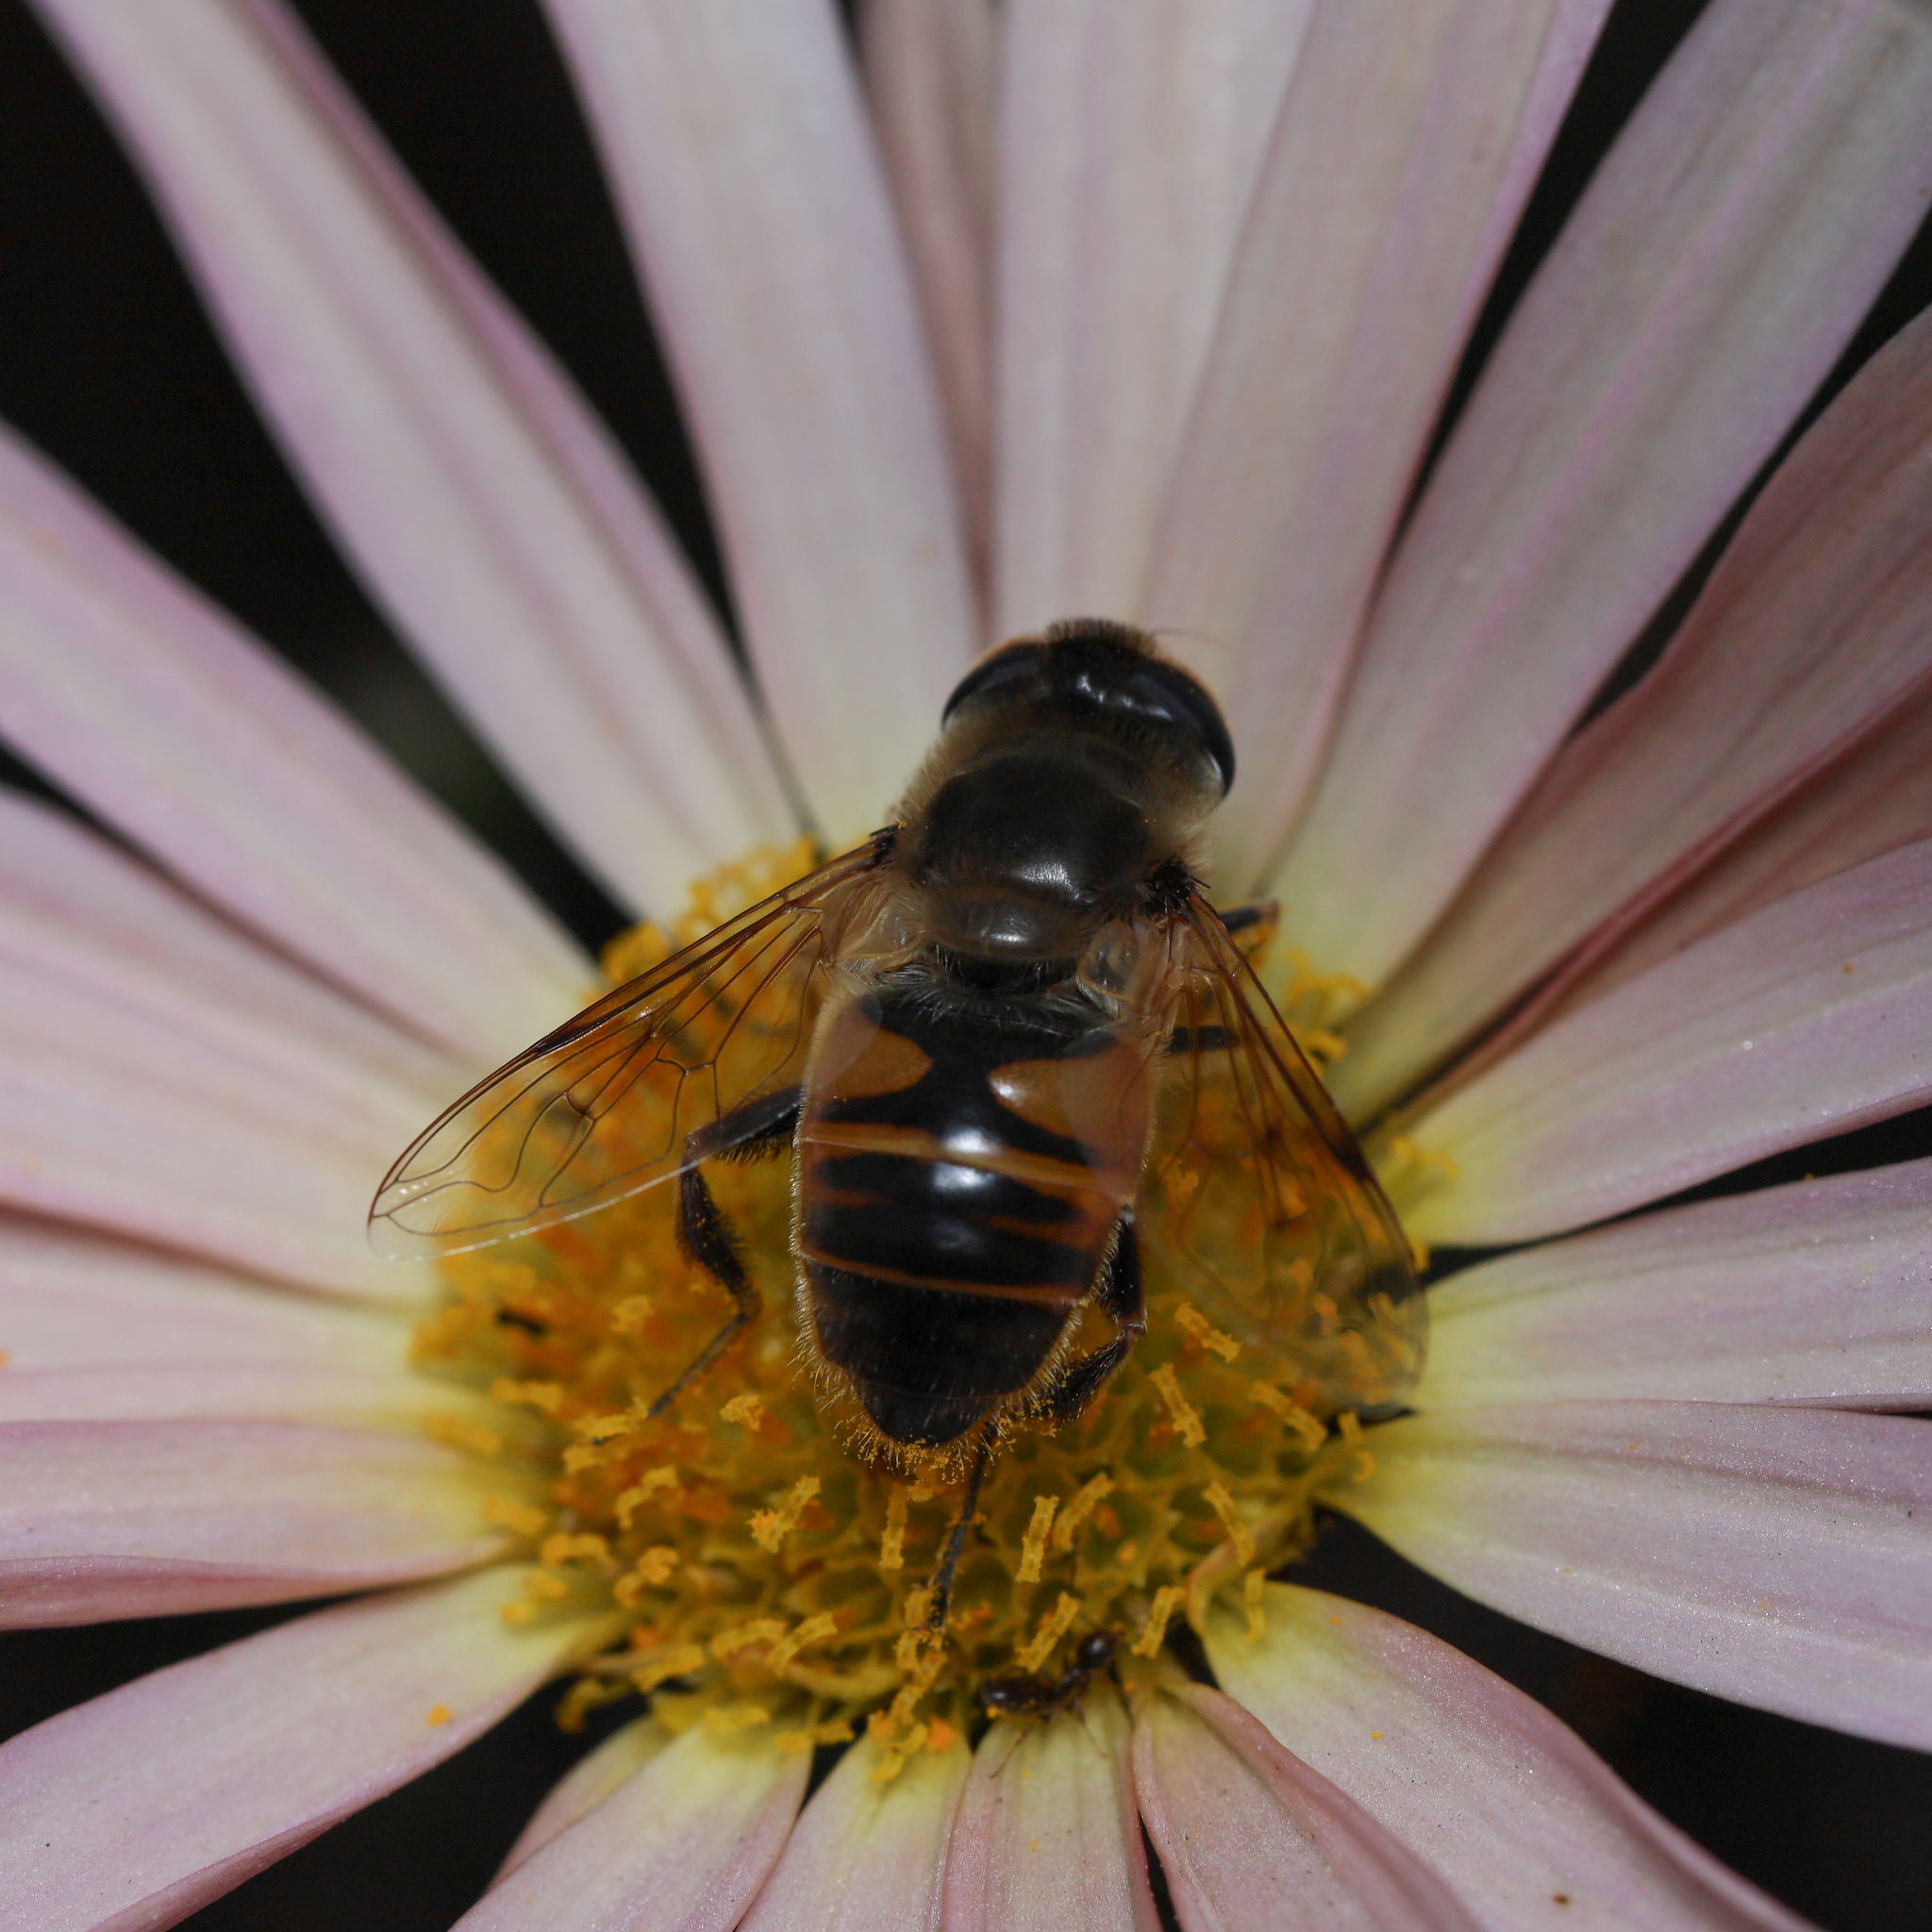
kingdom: Animalia
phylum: Arthropoda
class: Insecta
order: Diptera
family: Syrphidae
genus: Eristalis
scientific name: Eristalis tenax
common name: Drone fly
